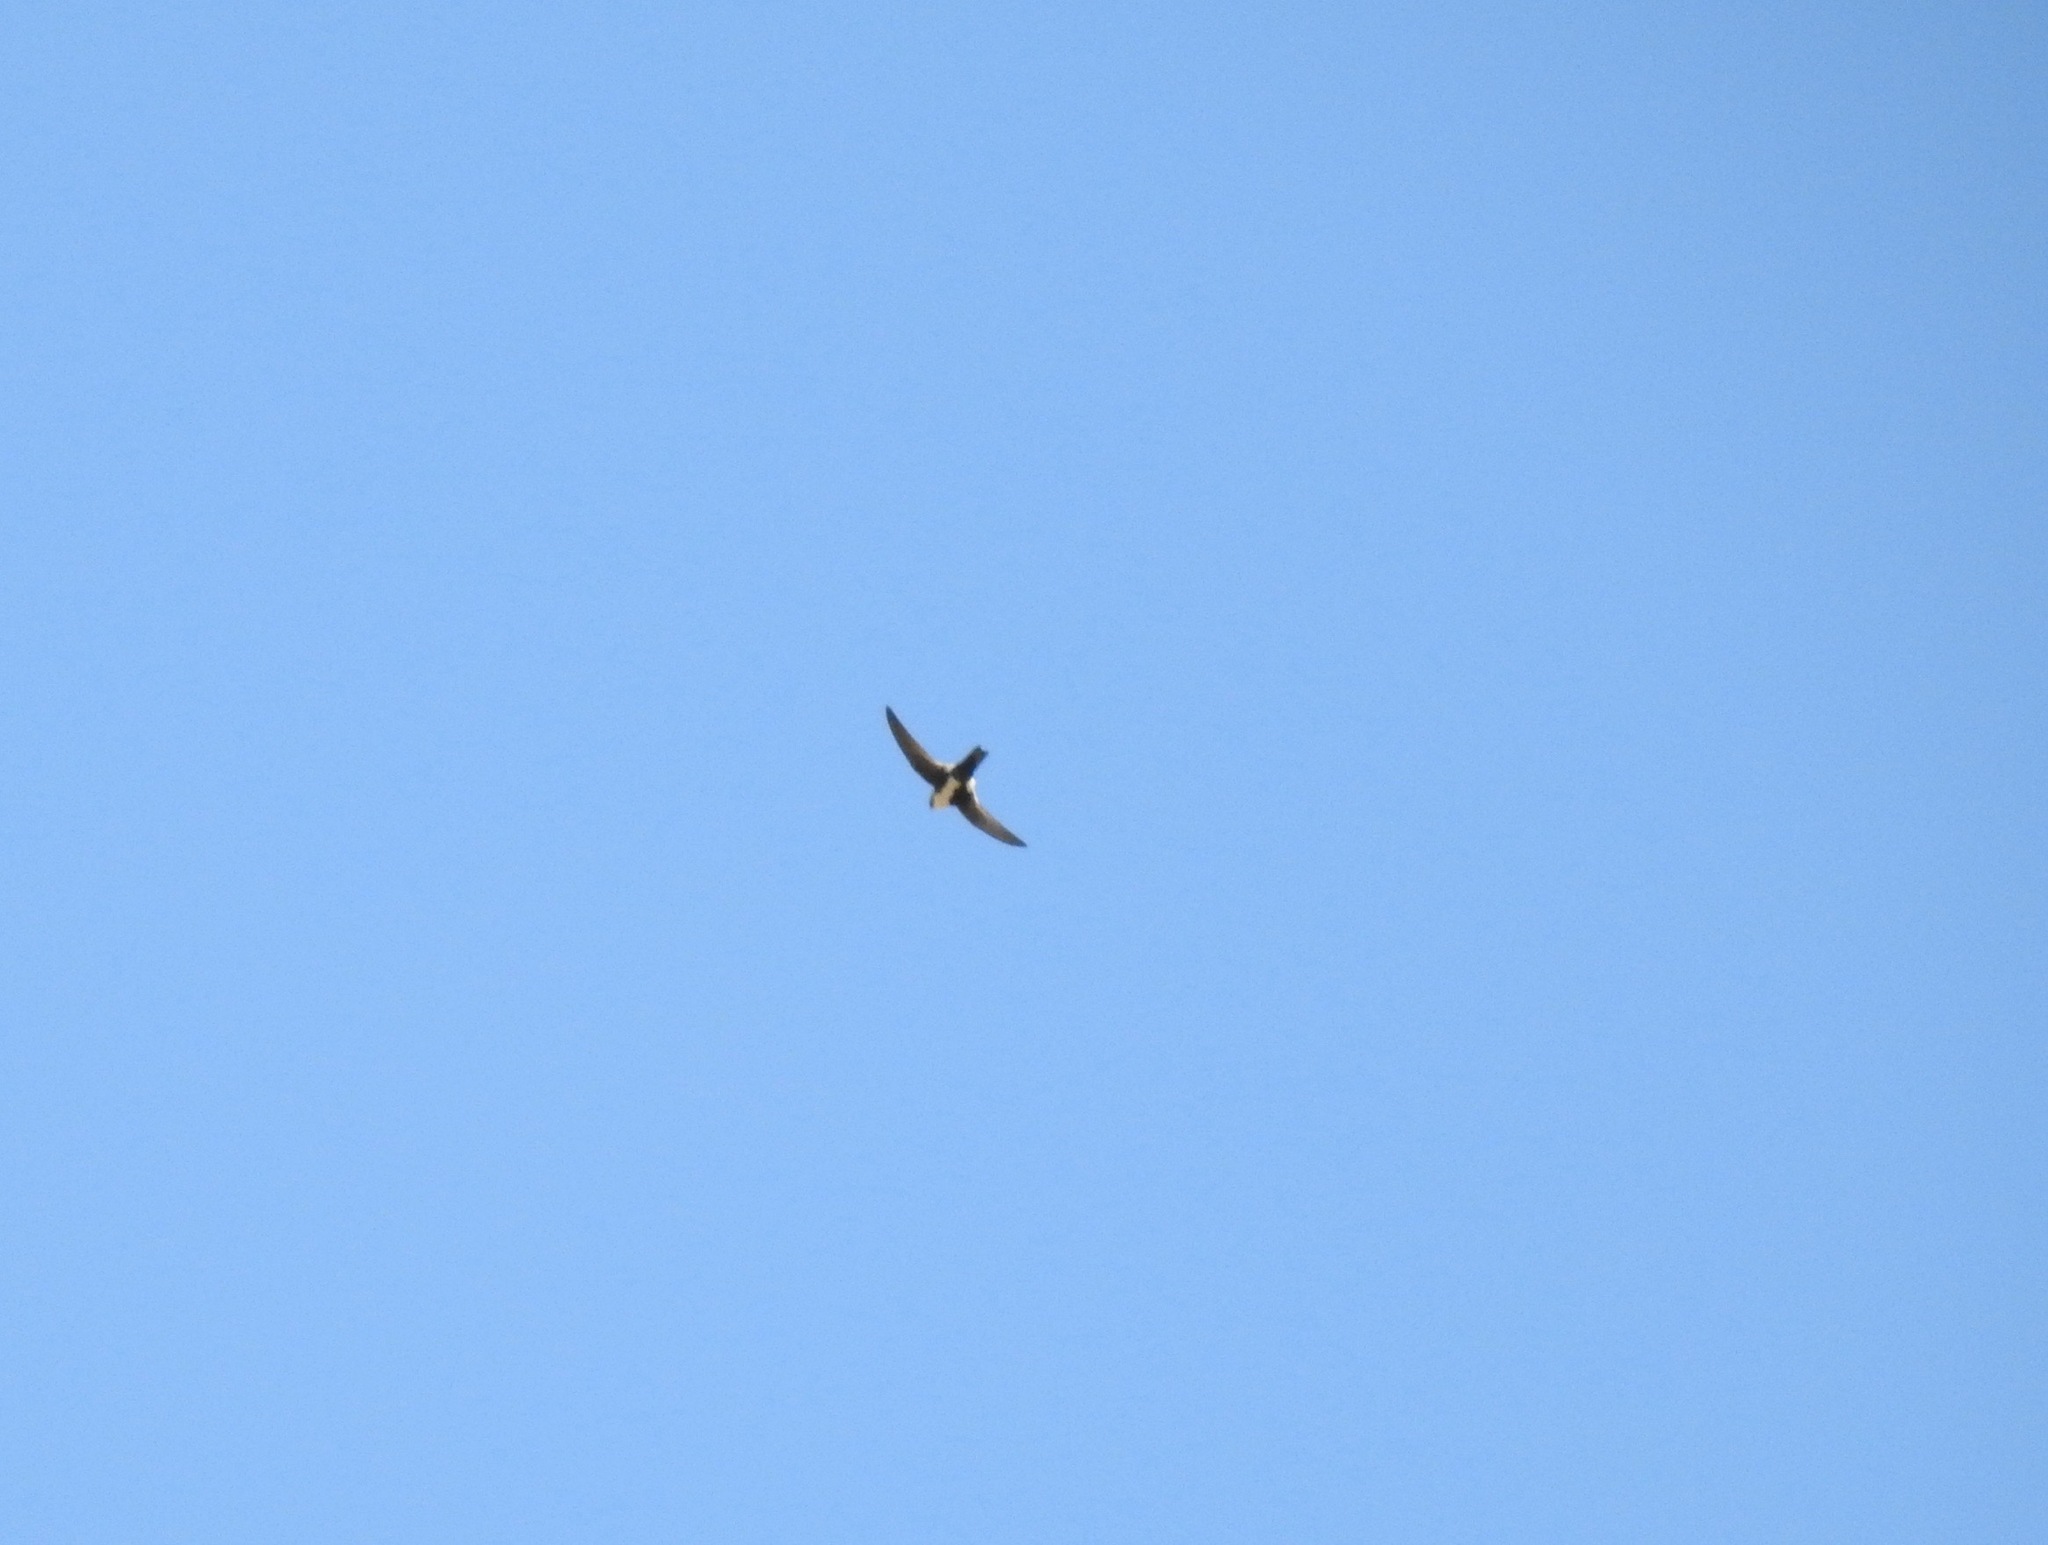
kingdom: Animalia
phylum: Chordata
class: Aves
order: Apodiformes
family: Apodidae
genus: Aeronautes
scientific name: Aeronautes saxatalis
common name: White-throated swift
